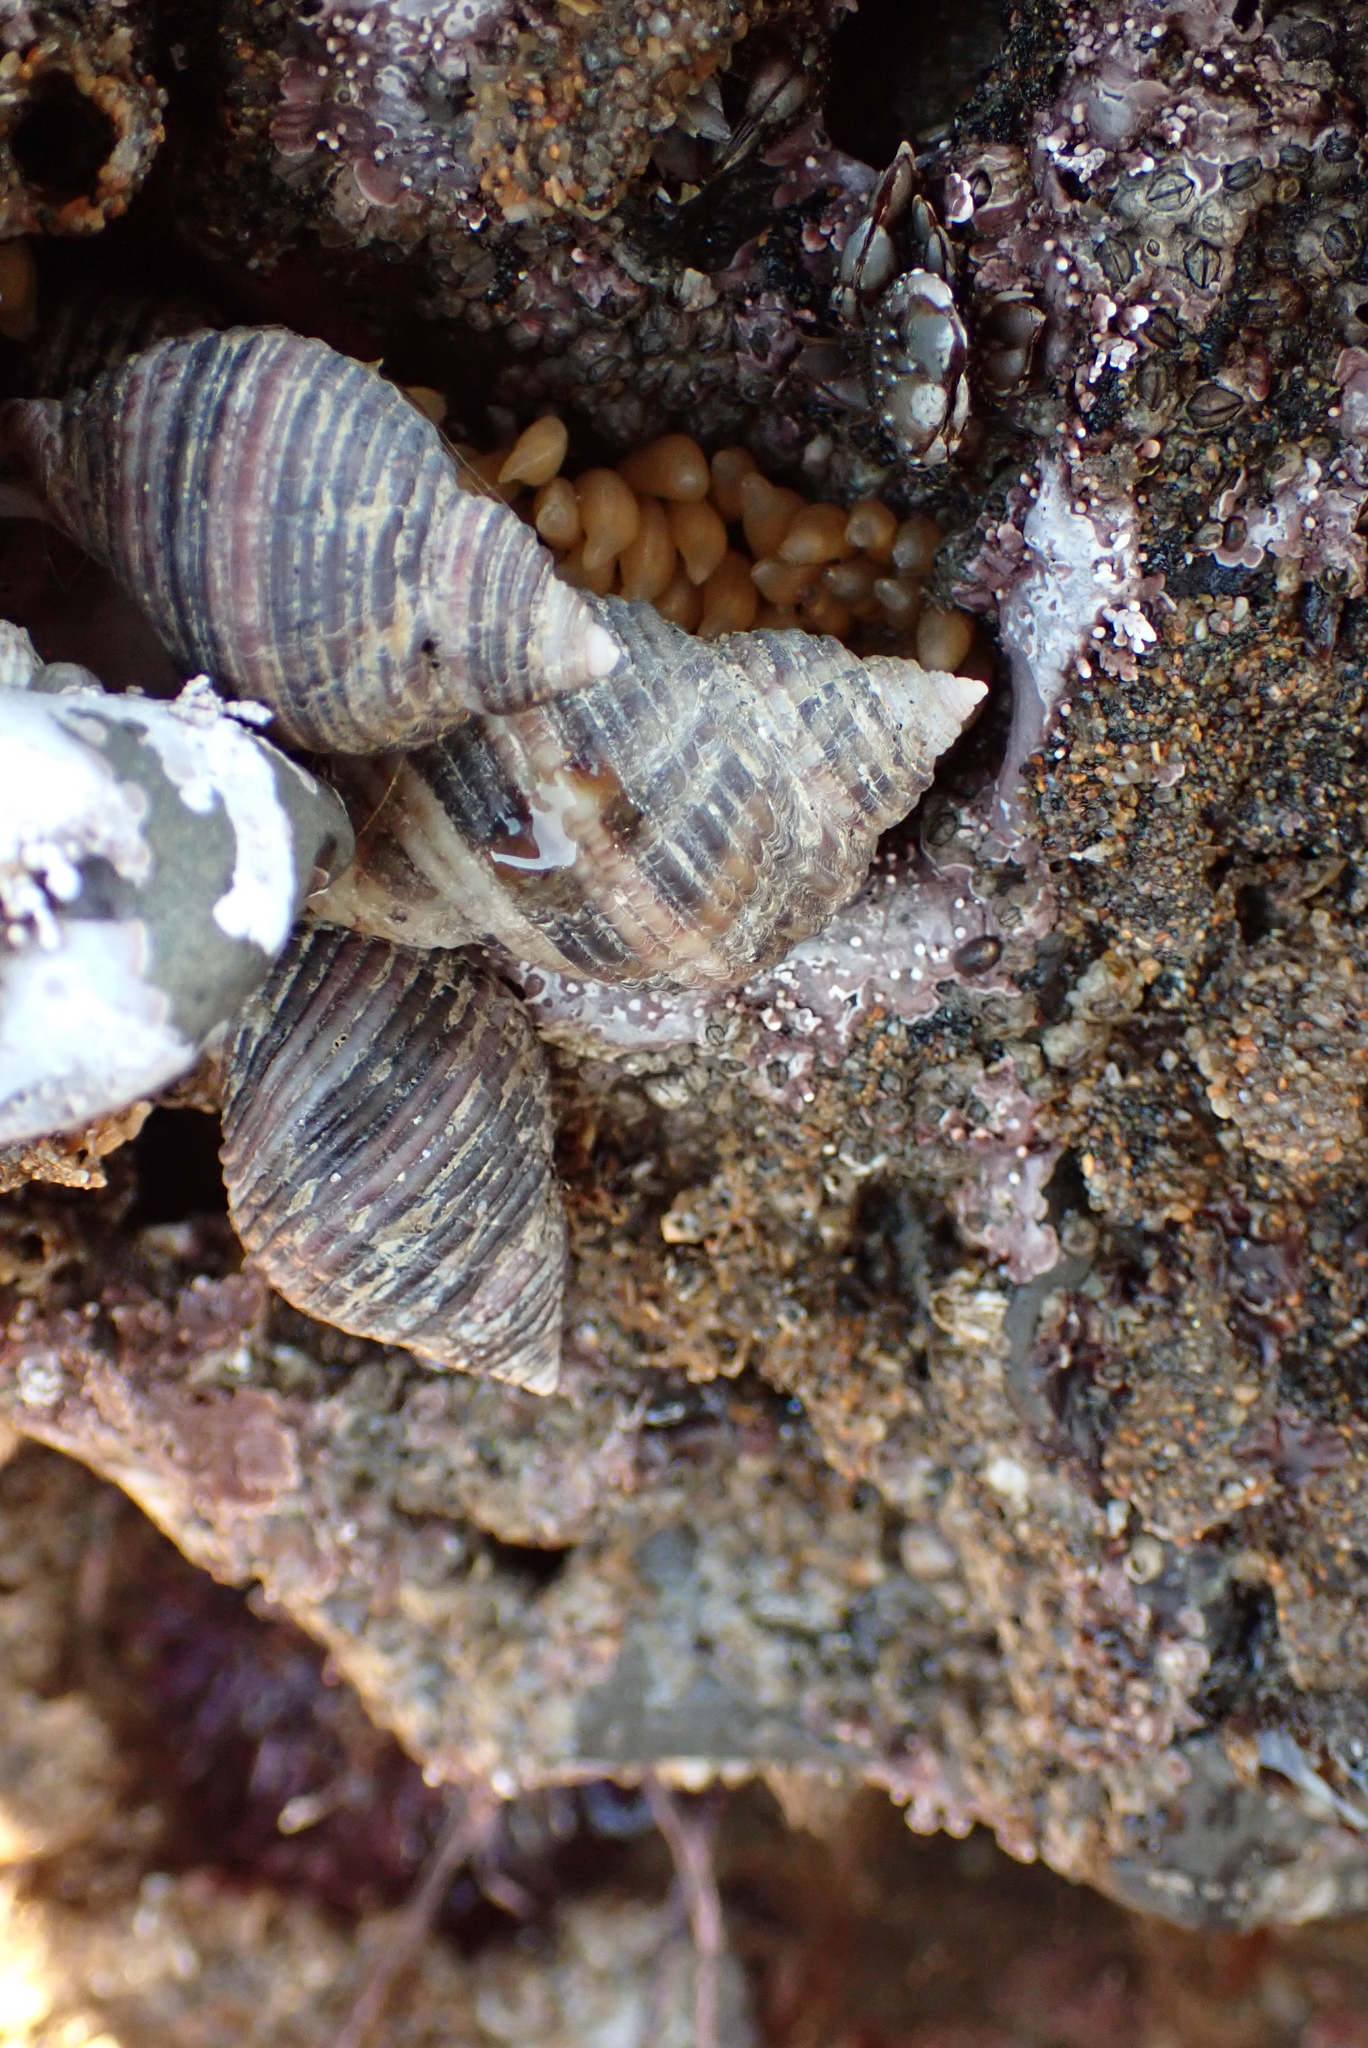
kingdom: Animalia
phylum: Mollusca
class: Gastropoda
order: Neogastropoda
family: Muricidae
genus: Nucella
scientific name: Nucella analoga
